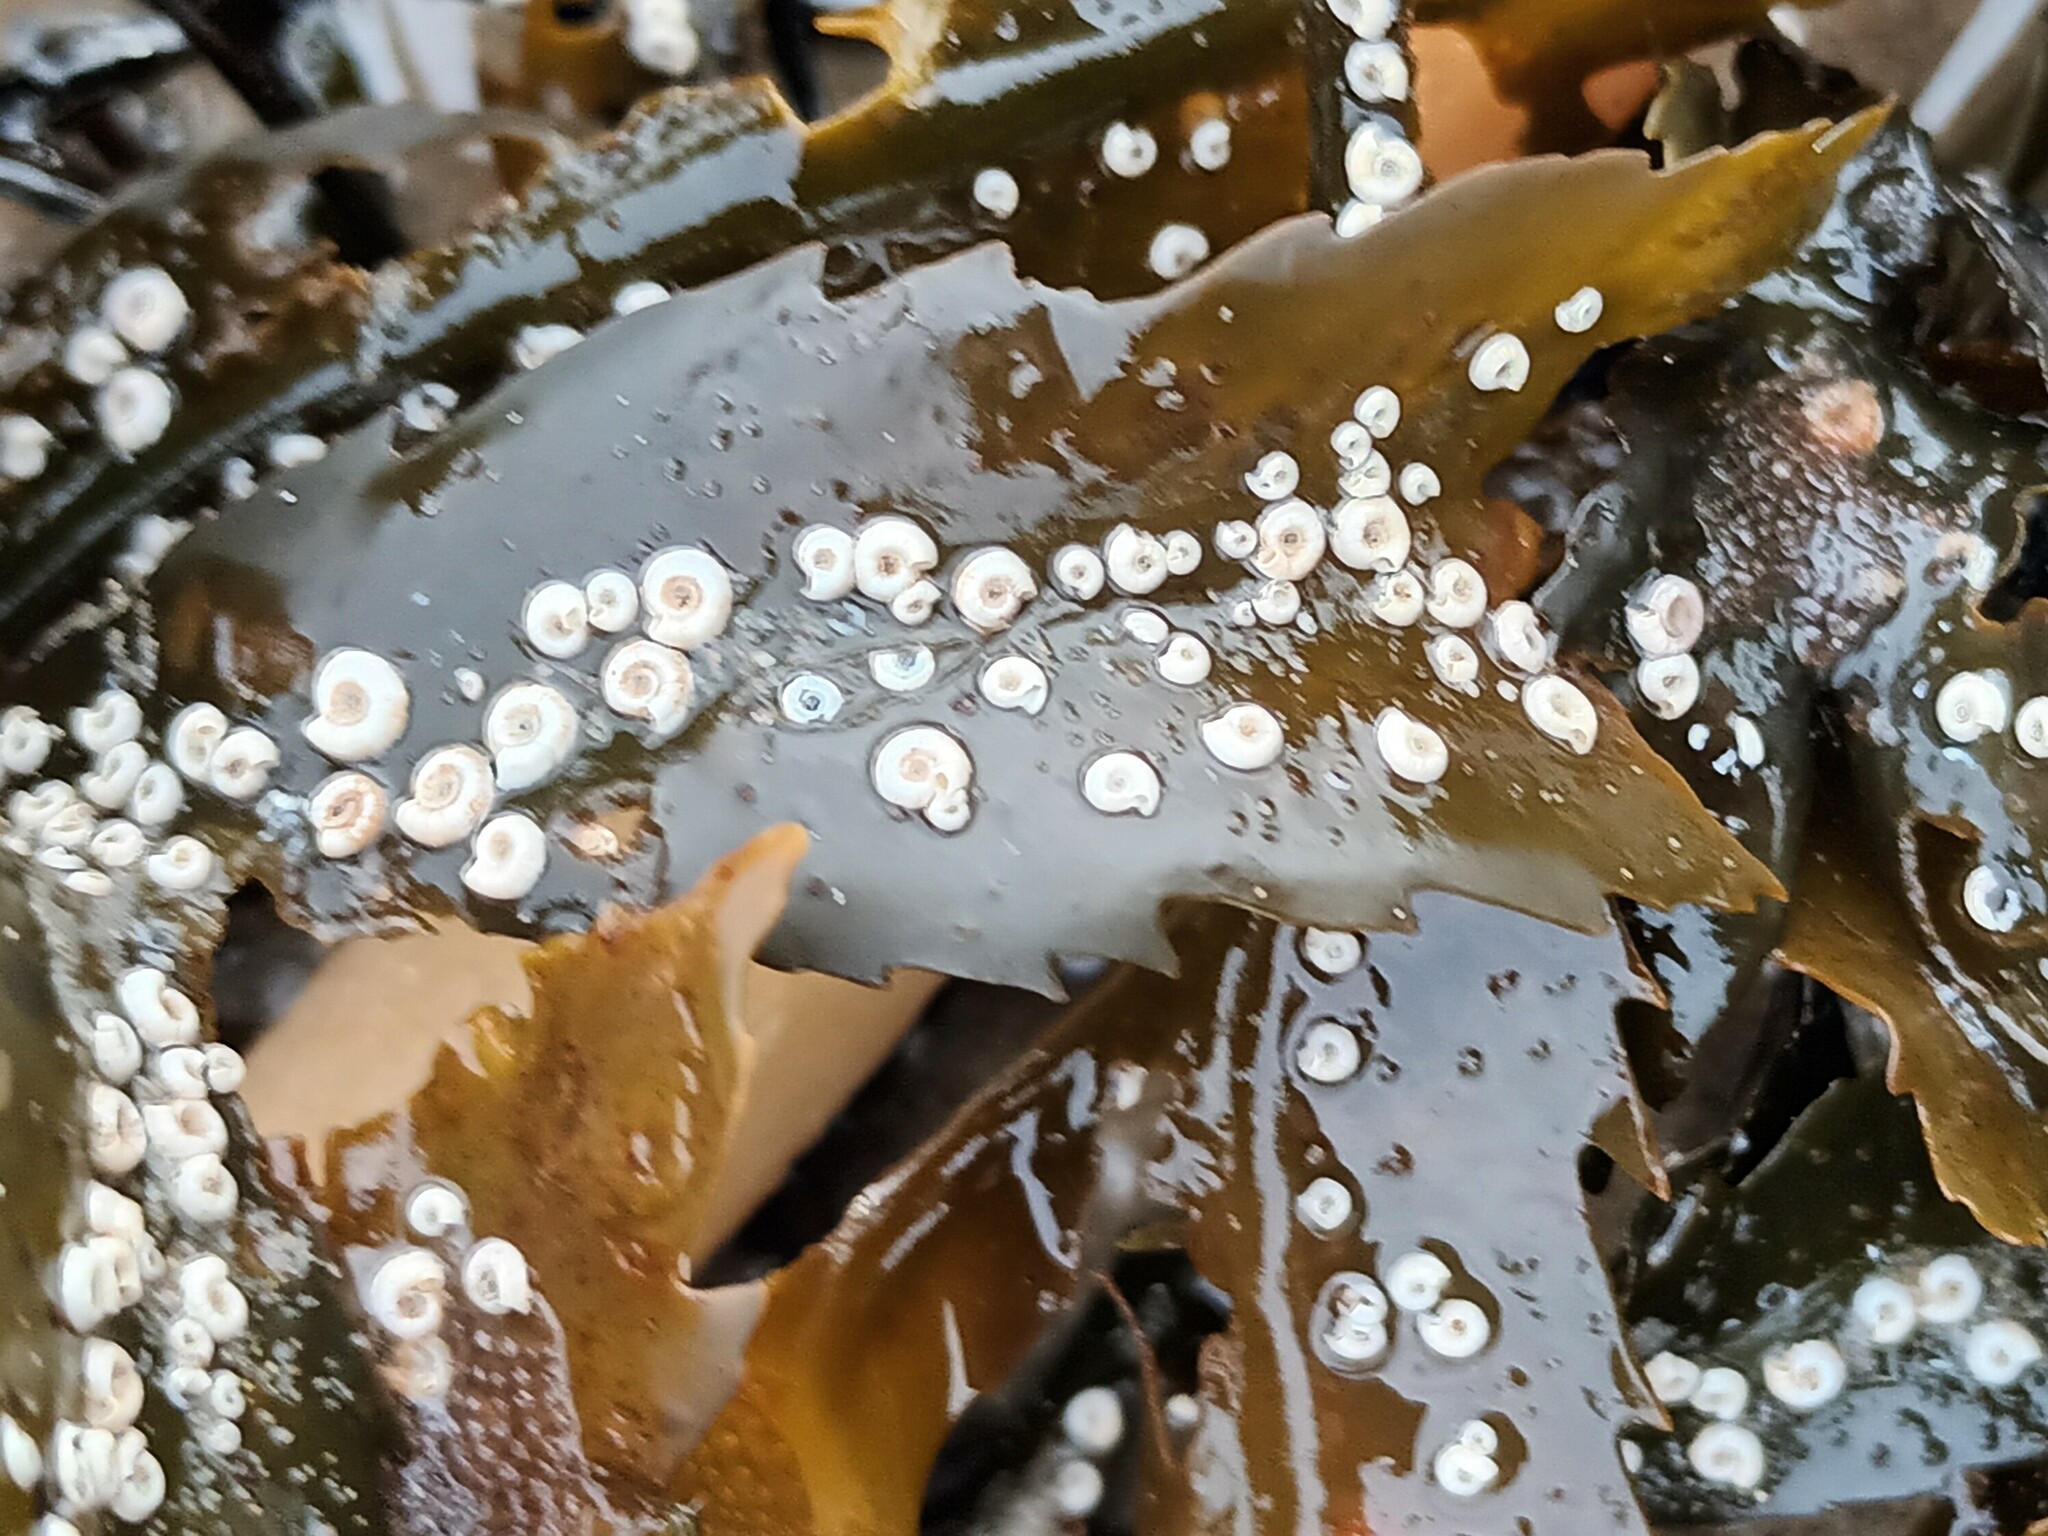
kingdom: Animalia
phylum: Annelida
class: Polychaeta
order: Sabellida
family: Serpulidae
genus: Spirorbis
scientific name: Spirorbis spirorbis
